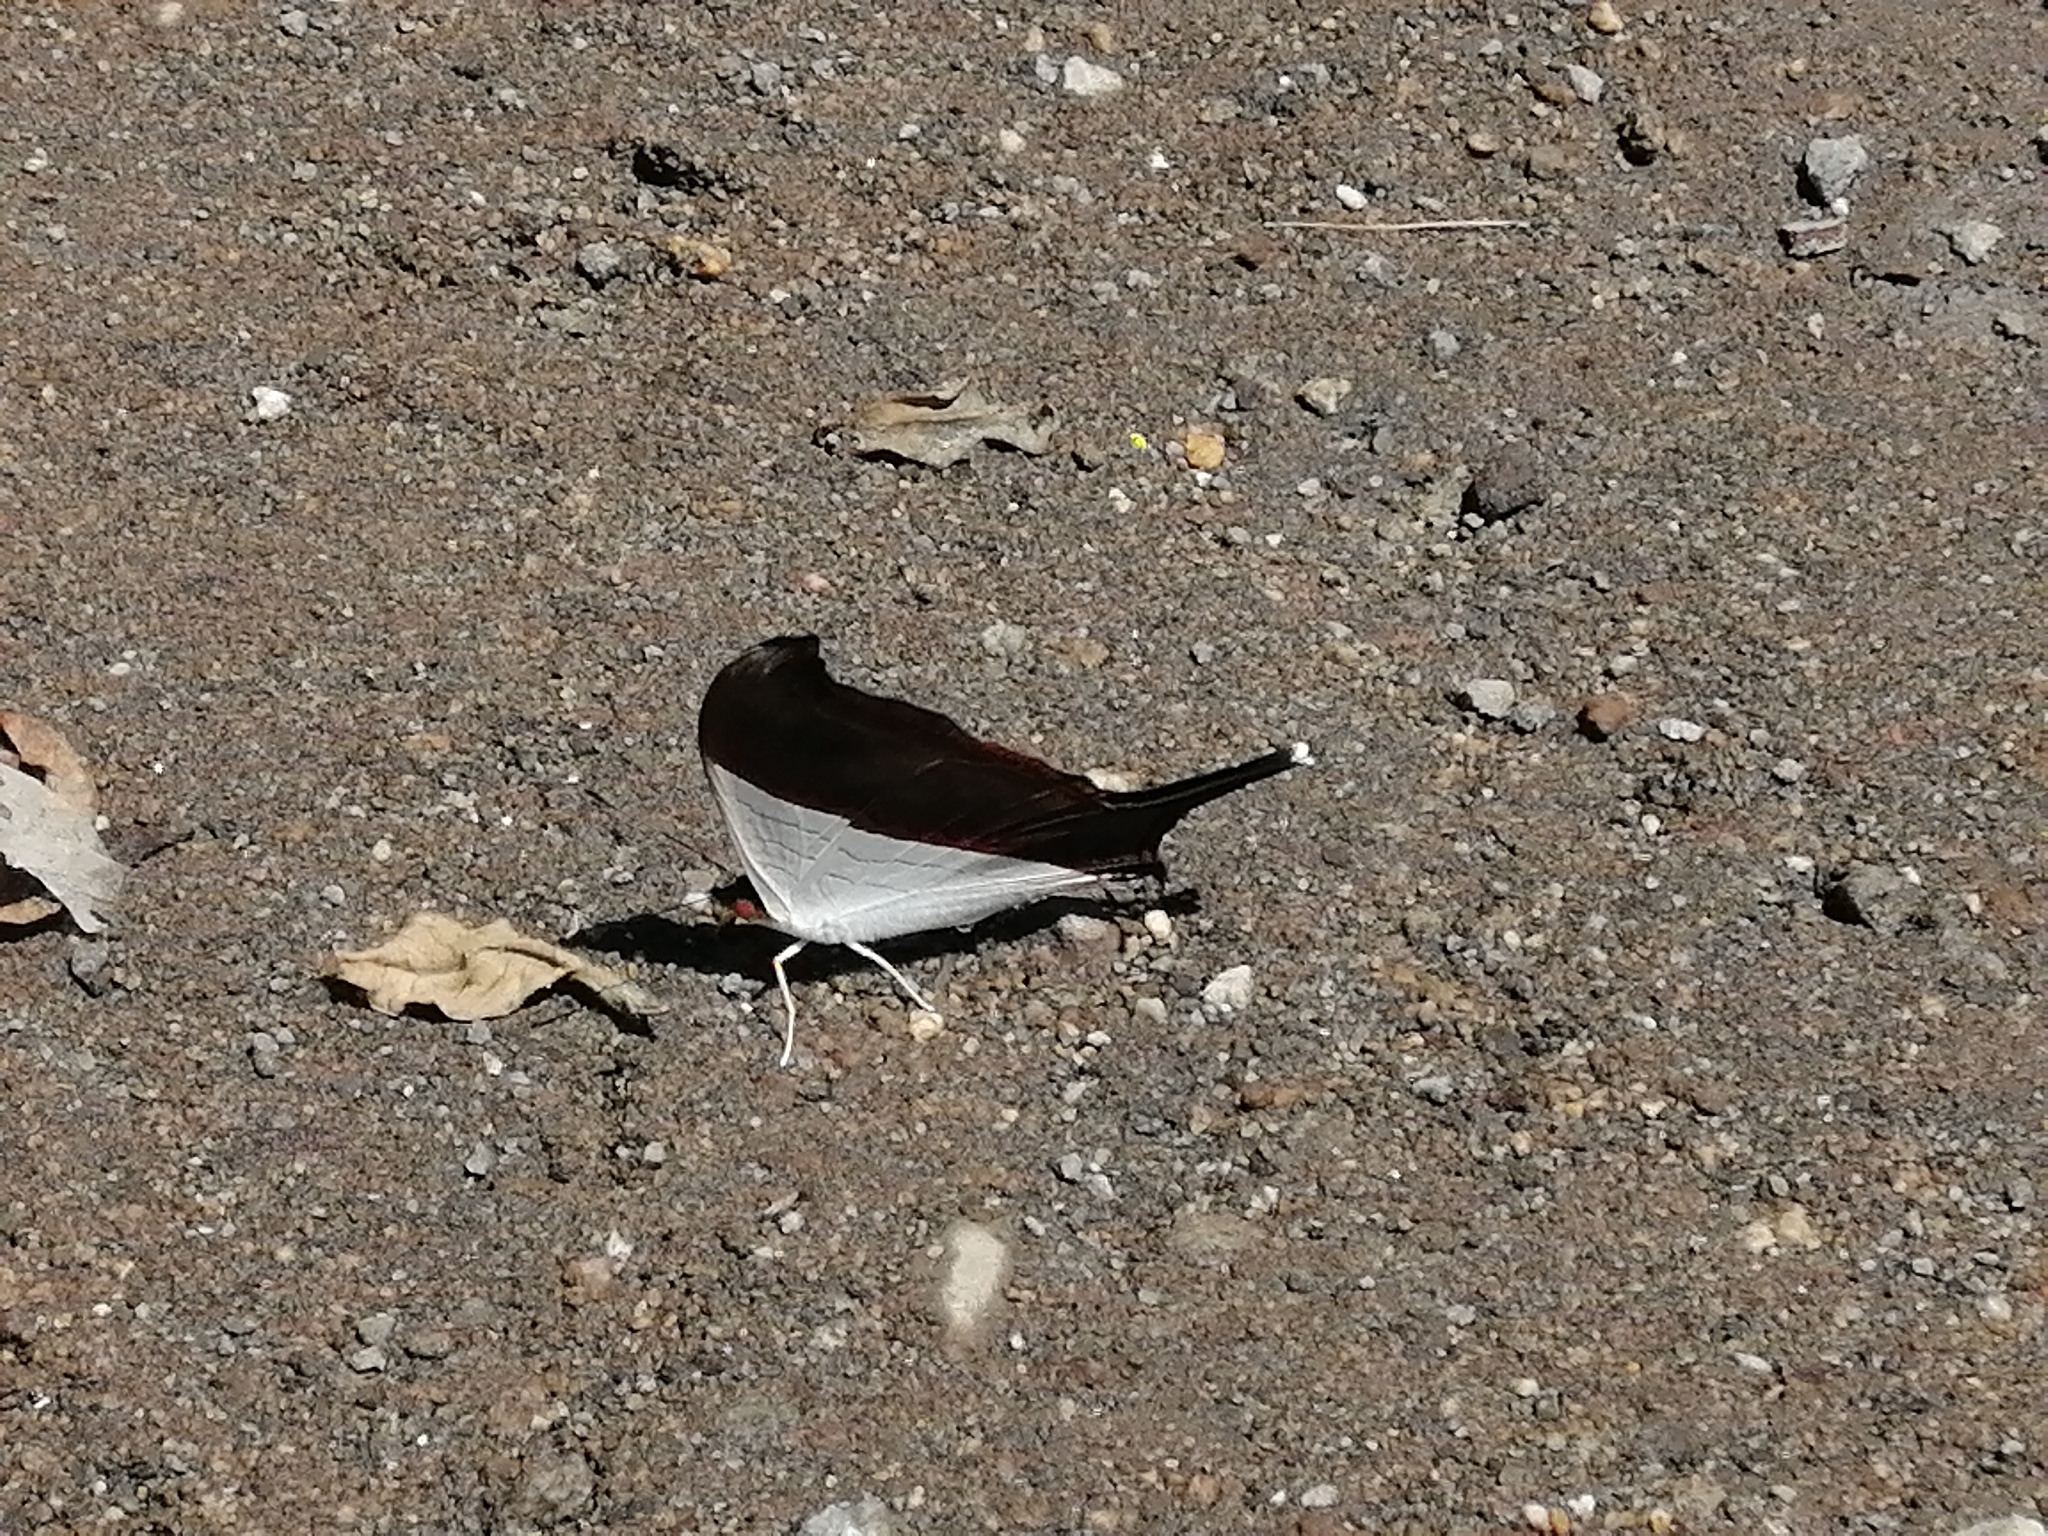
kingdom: Animalia
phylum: Arthropoda
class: Insecta
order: Lepidoptera
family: Nymphalidae
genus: Marpesia
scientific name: Marpesia zerynthia
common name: Waiter daggerwing
